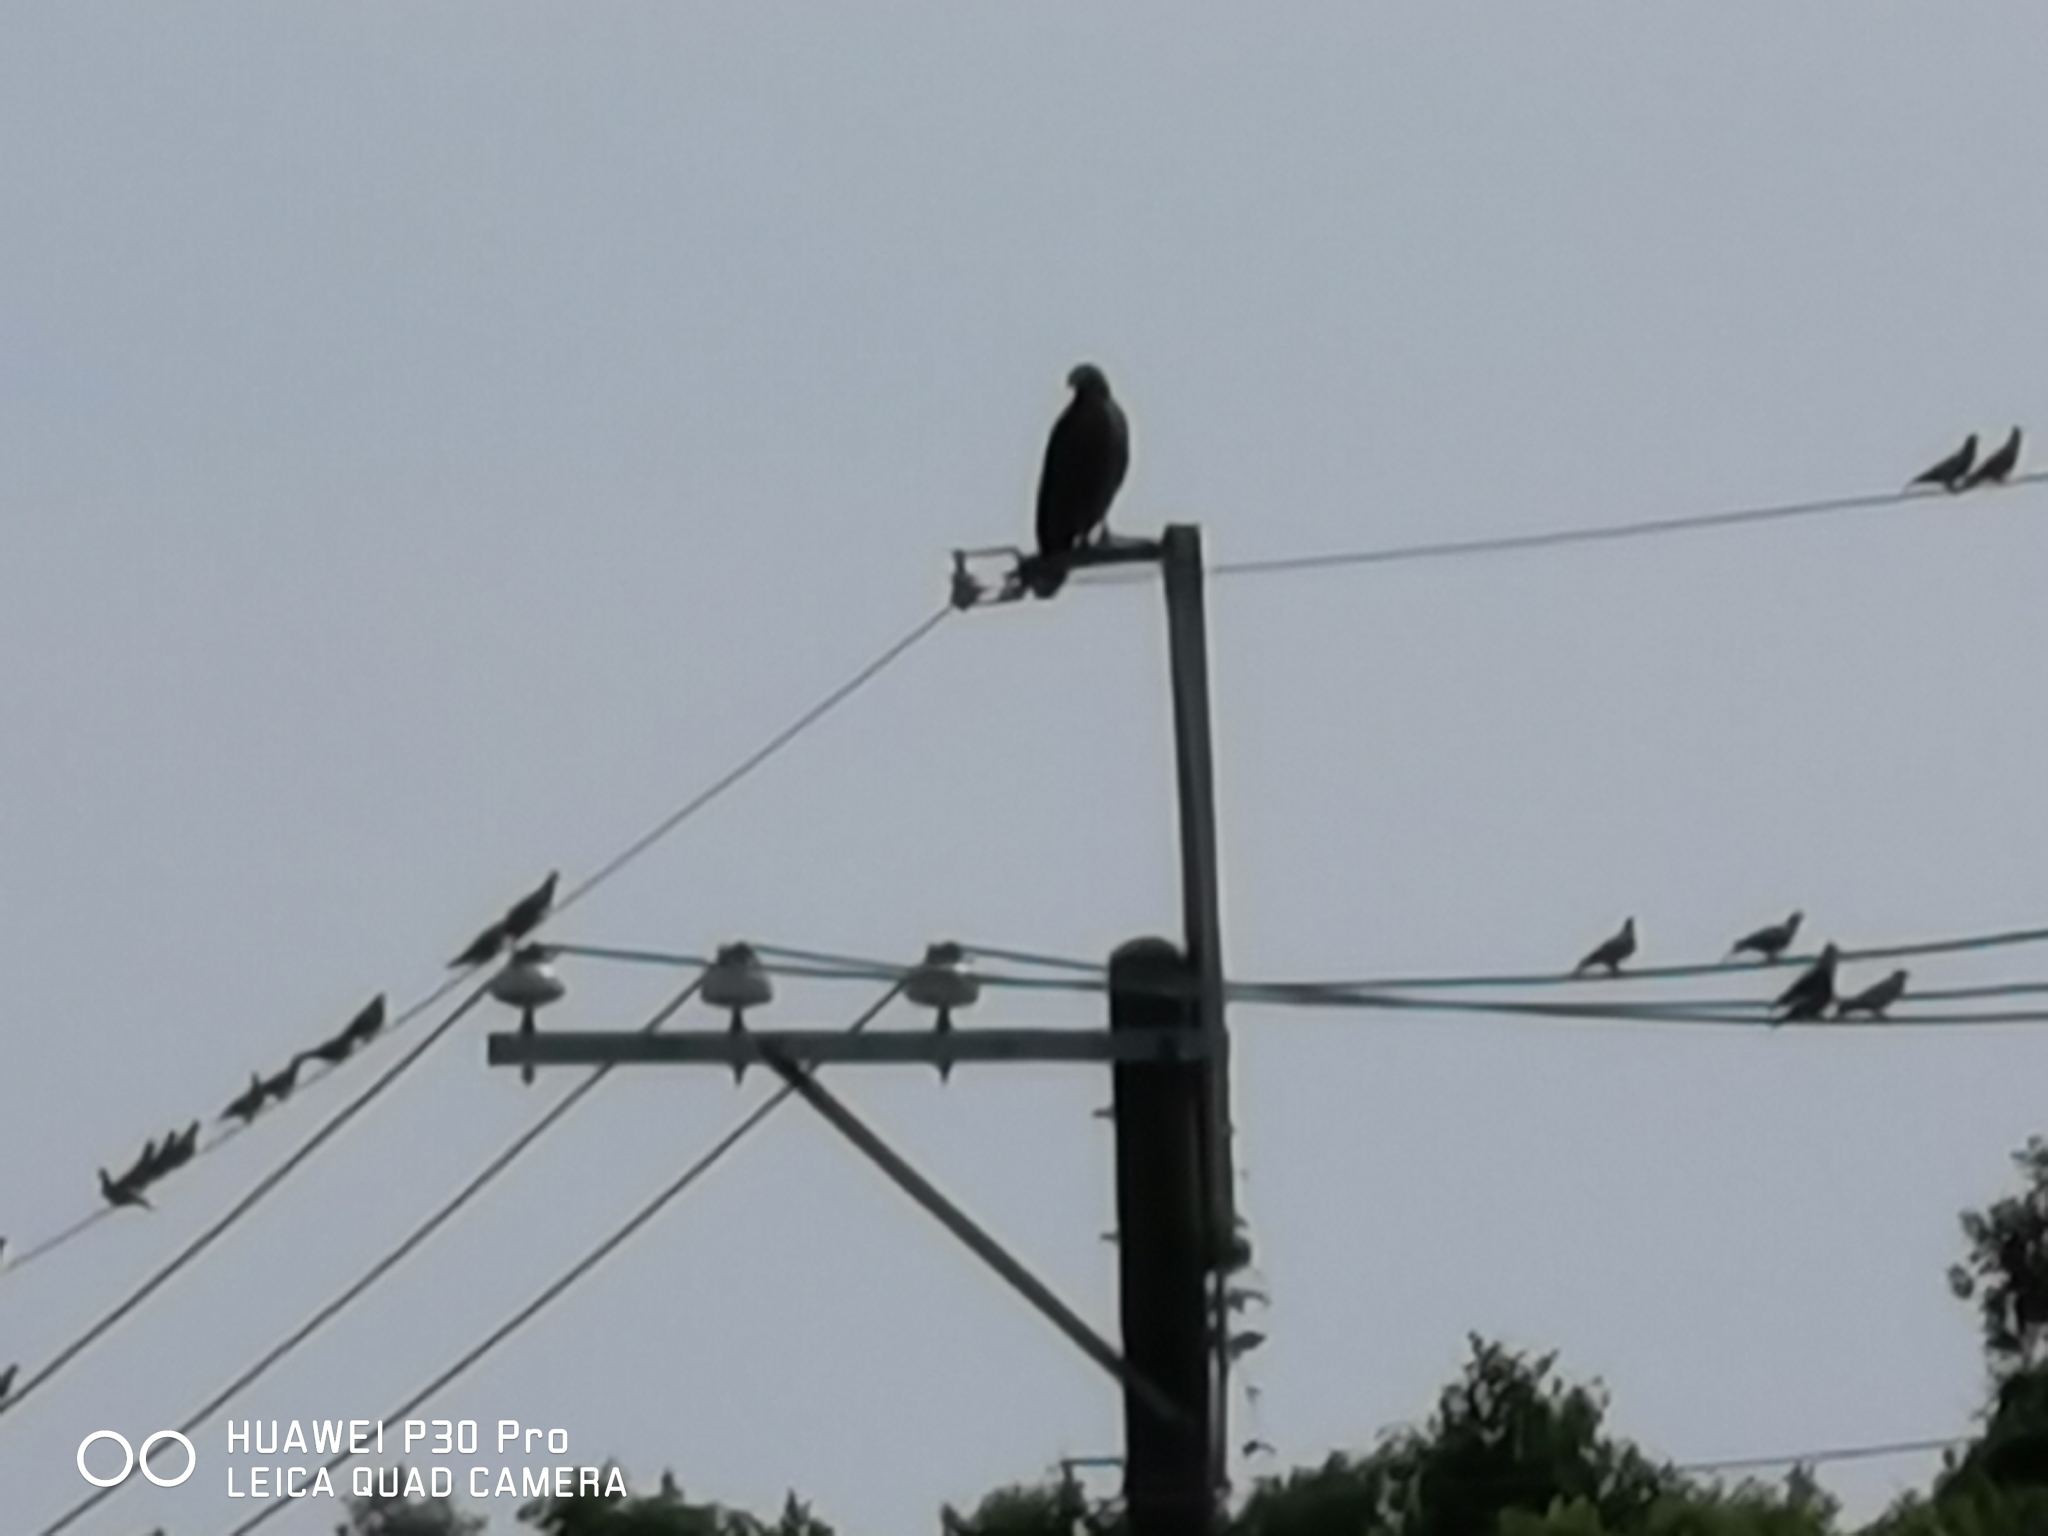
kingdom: Animalia
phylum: Chordata
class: Aves
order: Accipitriformes
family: Accipitridae
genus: Spilornis
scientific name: Spilornis cheela
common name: Crested serpent eagle
